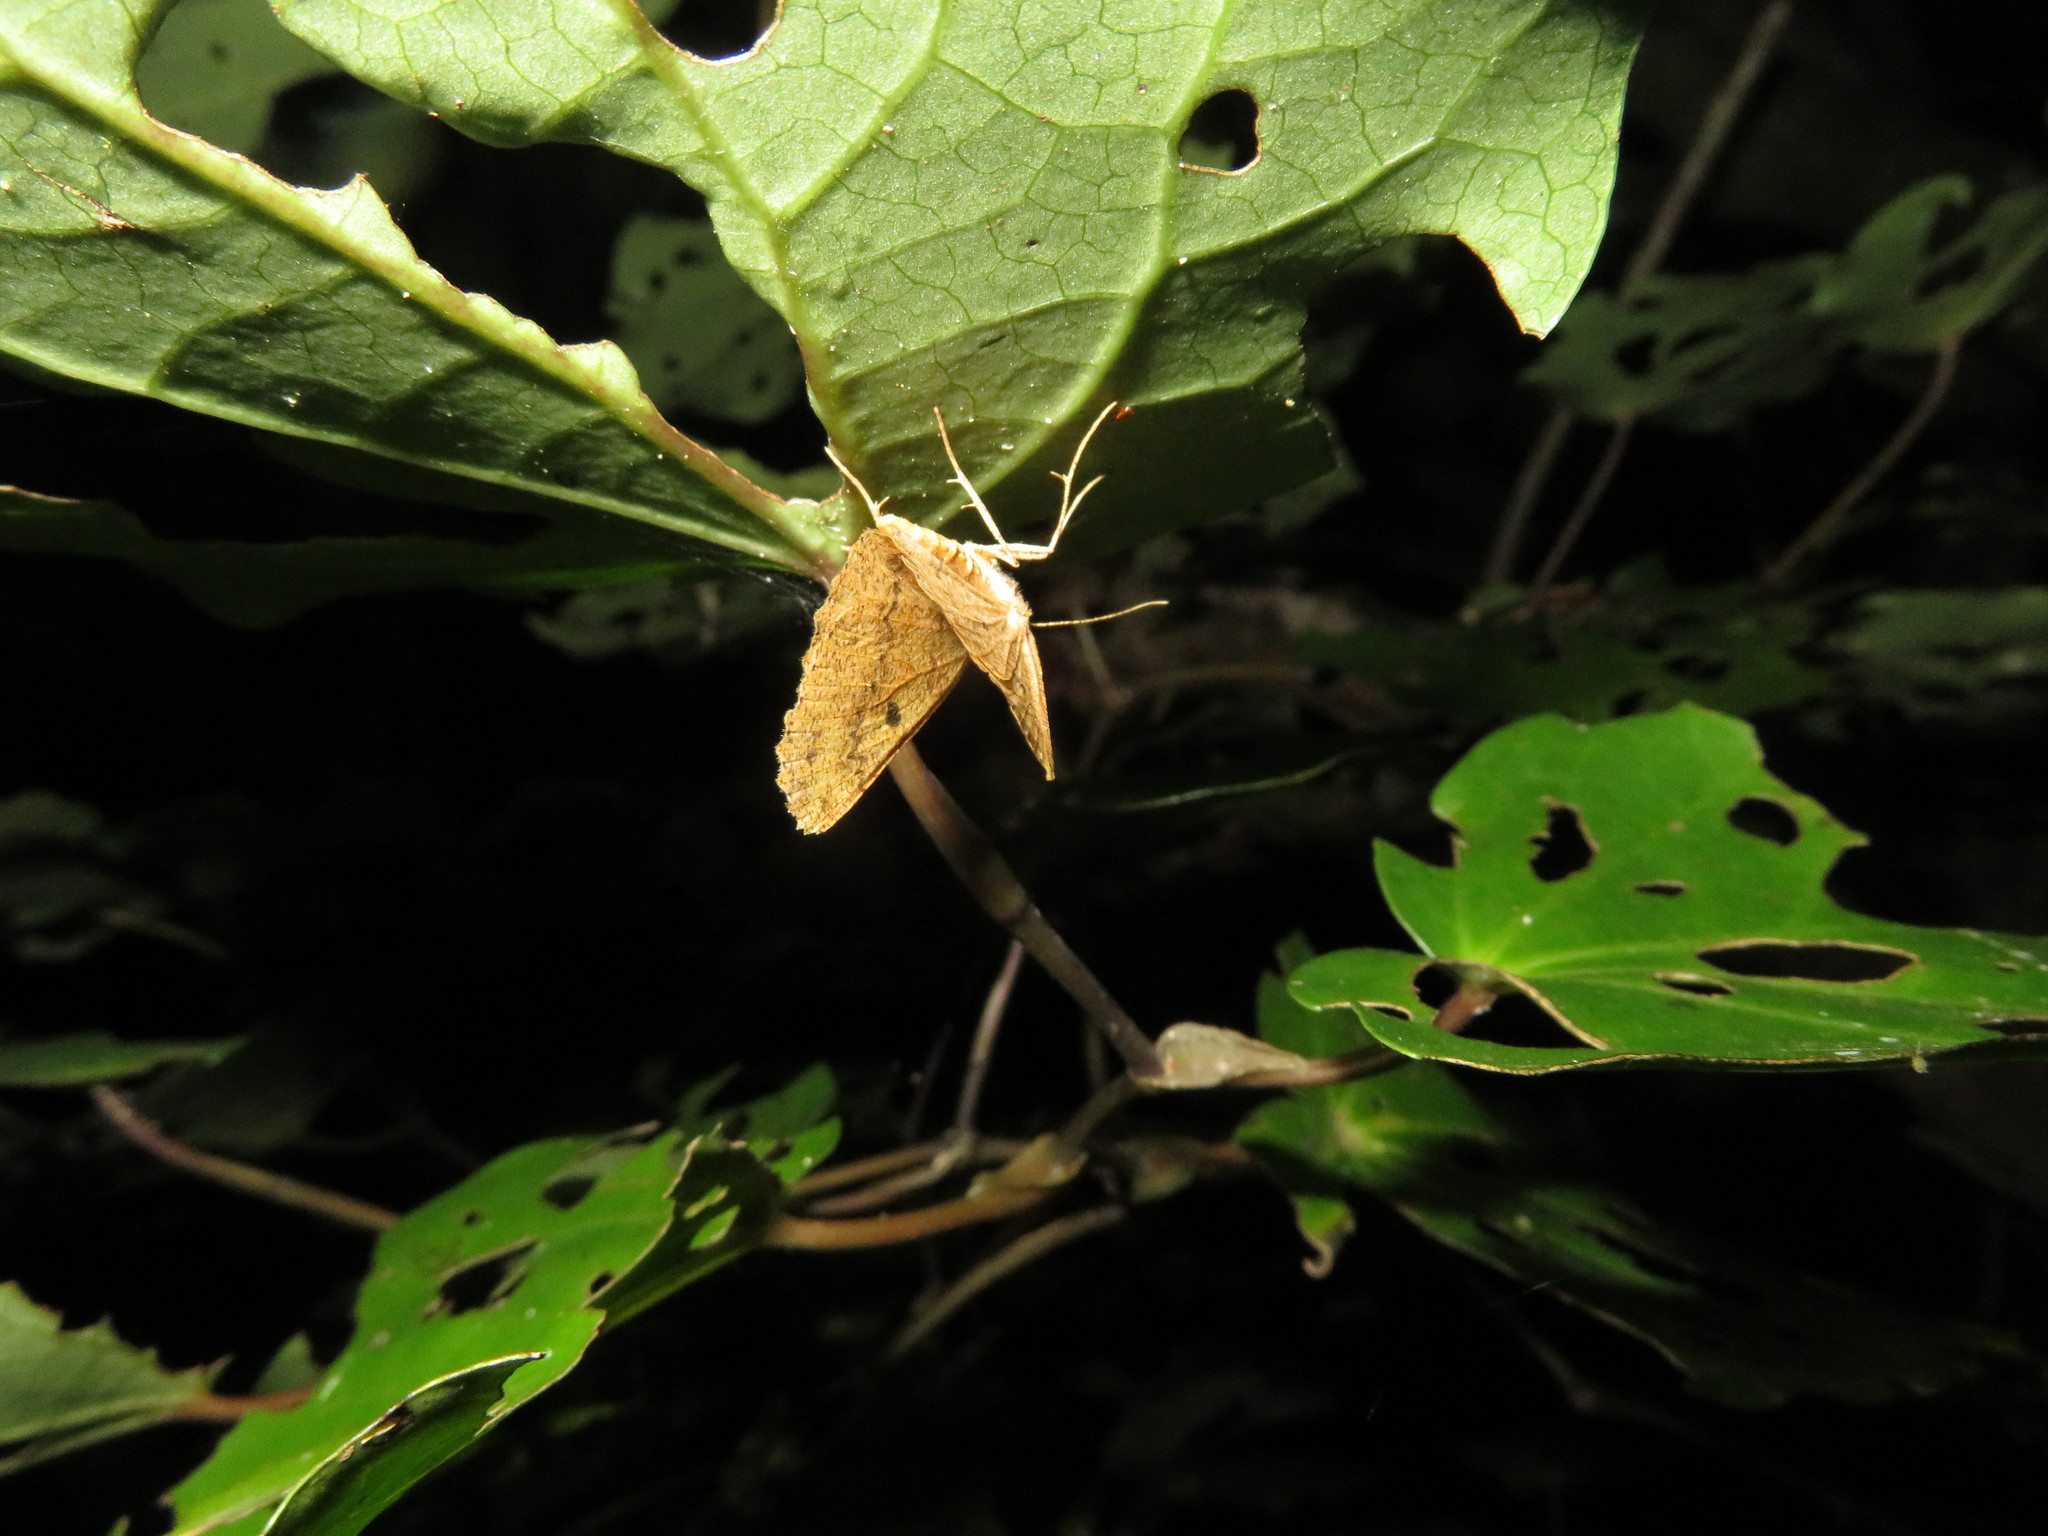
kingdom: Animalia
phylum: Arthropoda
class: Insecta
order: Lepidoptera
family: Geometridae
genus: Cleora
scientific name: Cleora scriptaria
